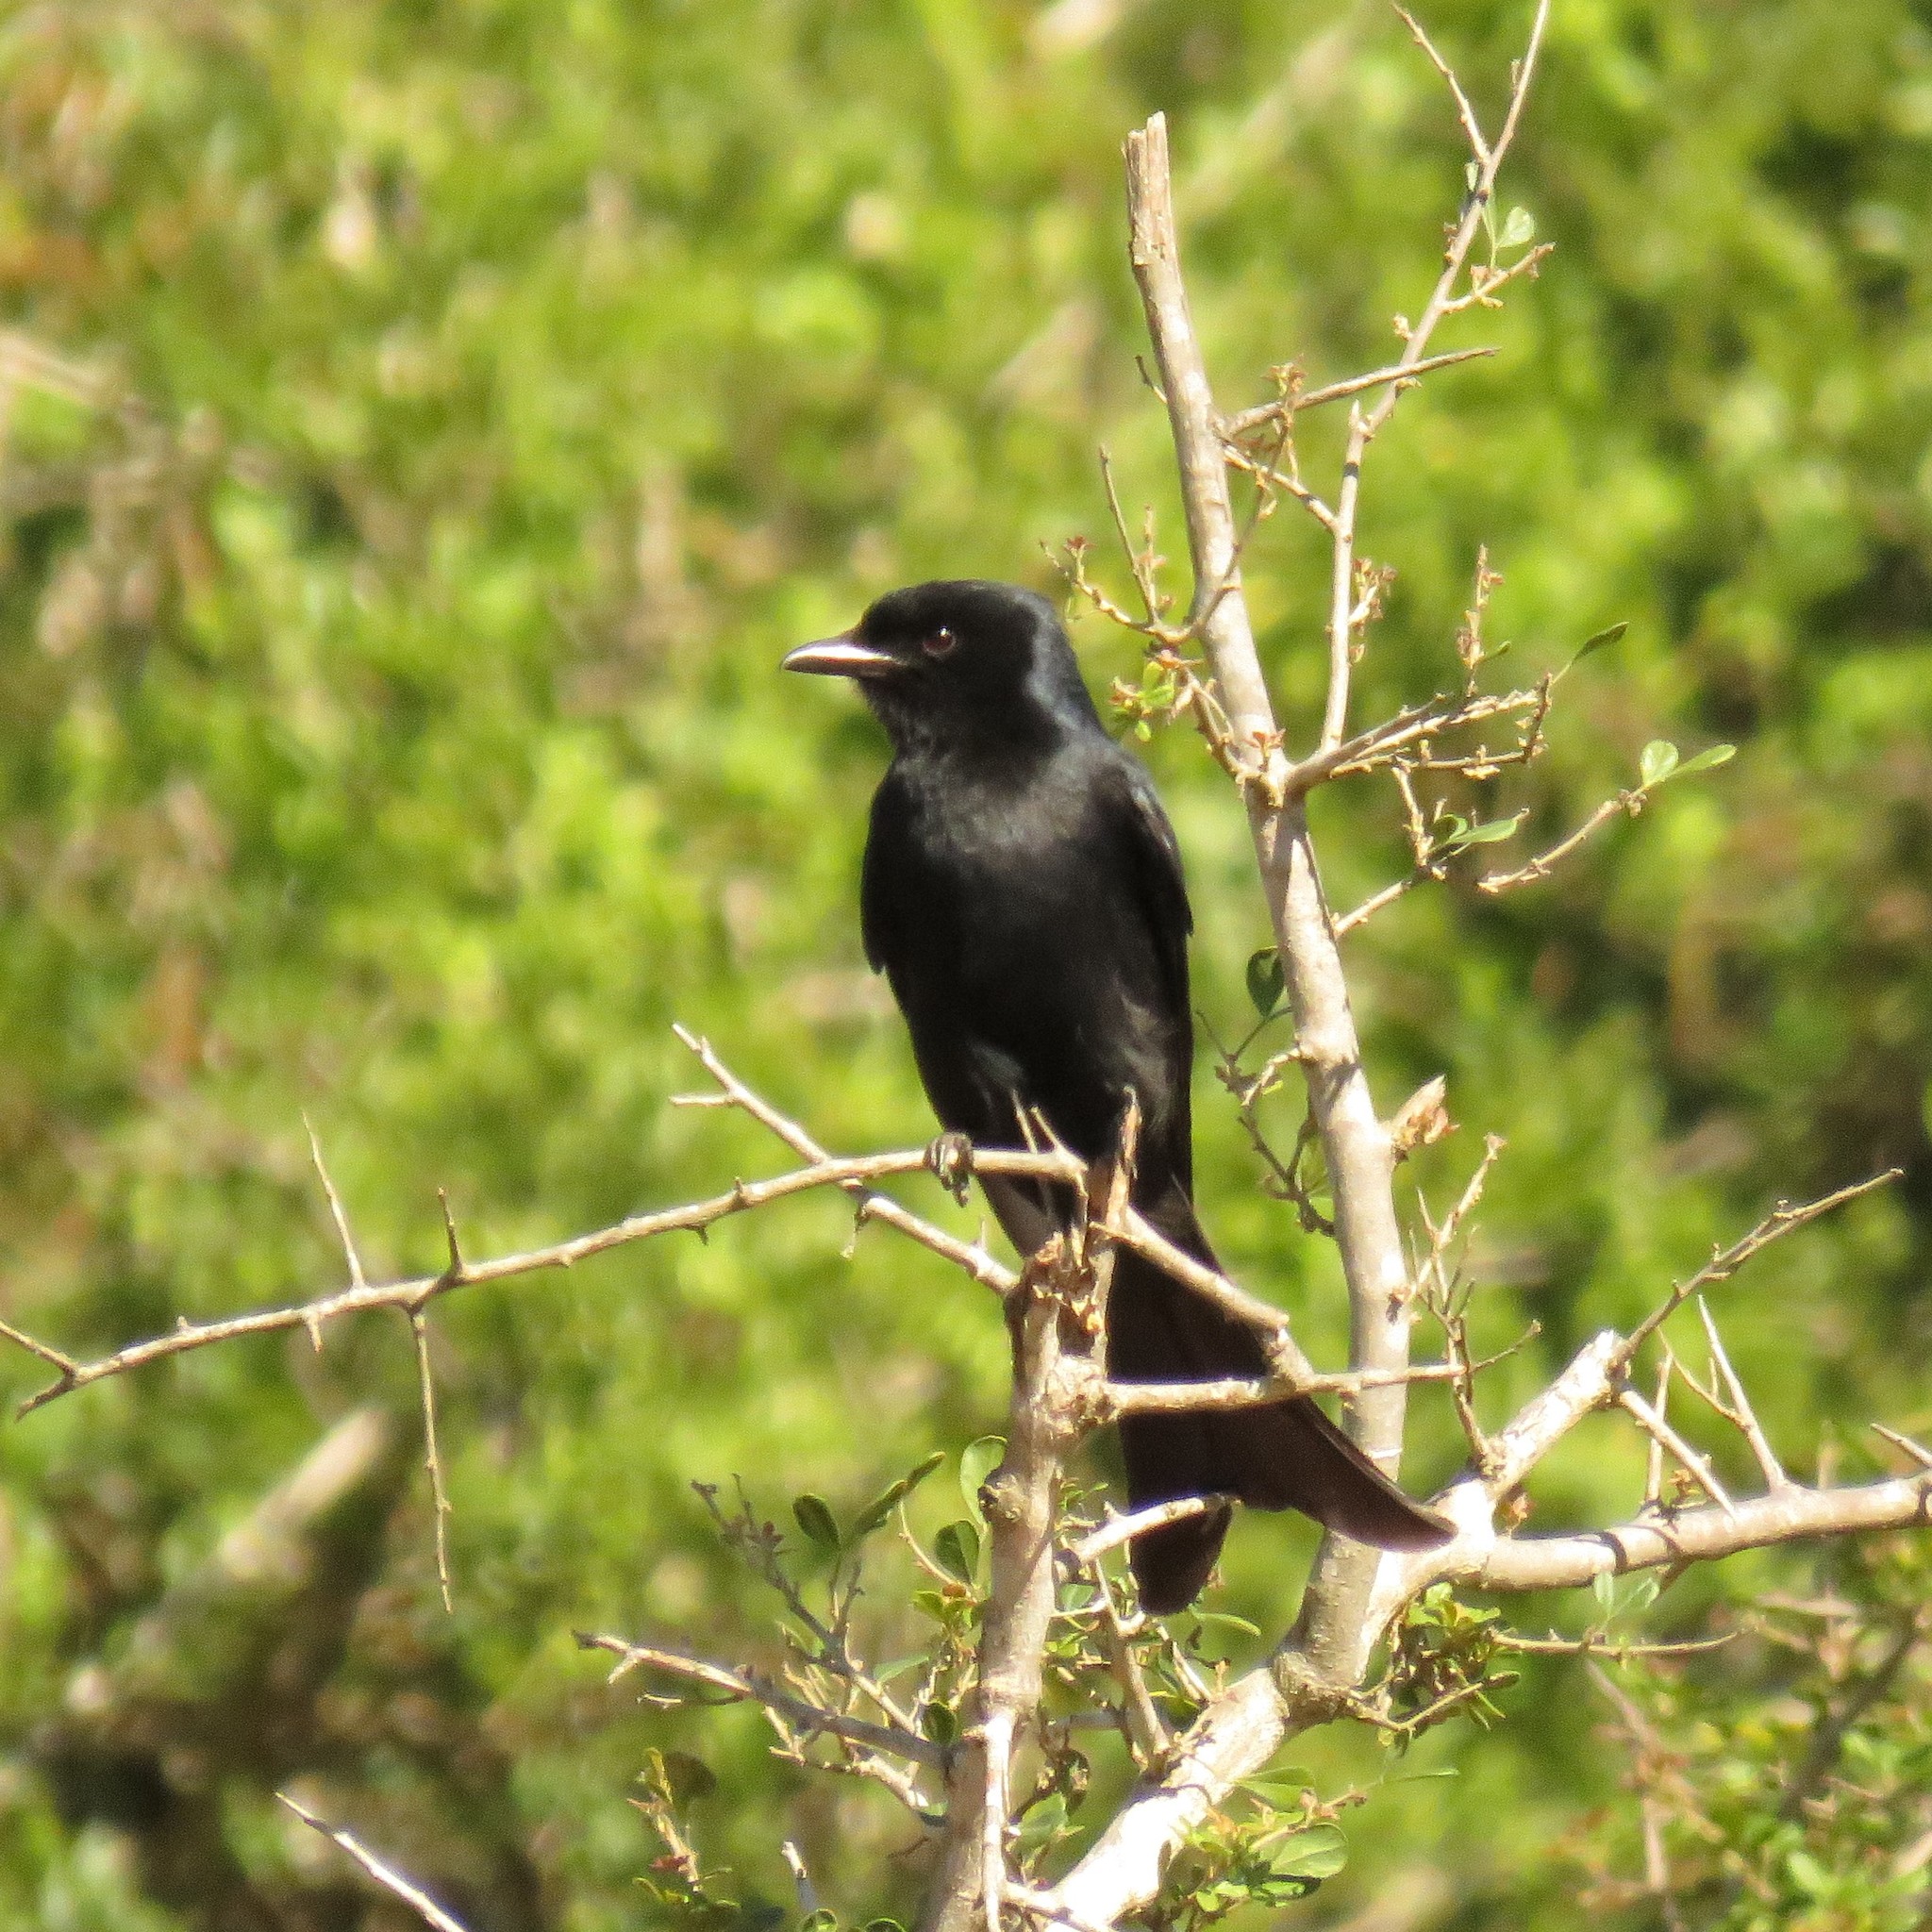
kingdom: Animalia
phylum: Chordata
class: Aves
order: Passeriformes
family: Dicruridae
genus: Dicrurus
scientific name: Dicrurus adsimilis
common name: Fork-tailed drongo
